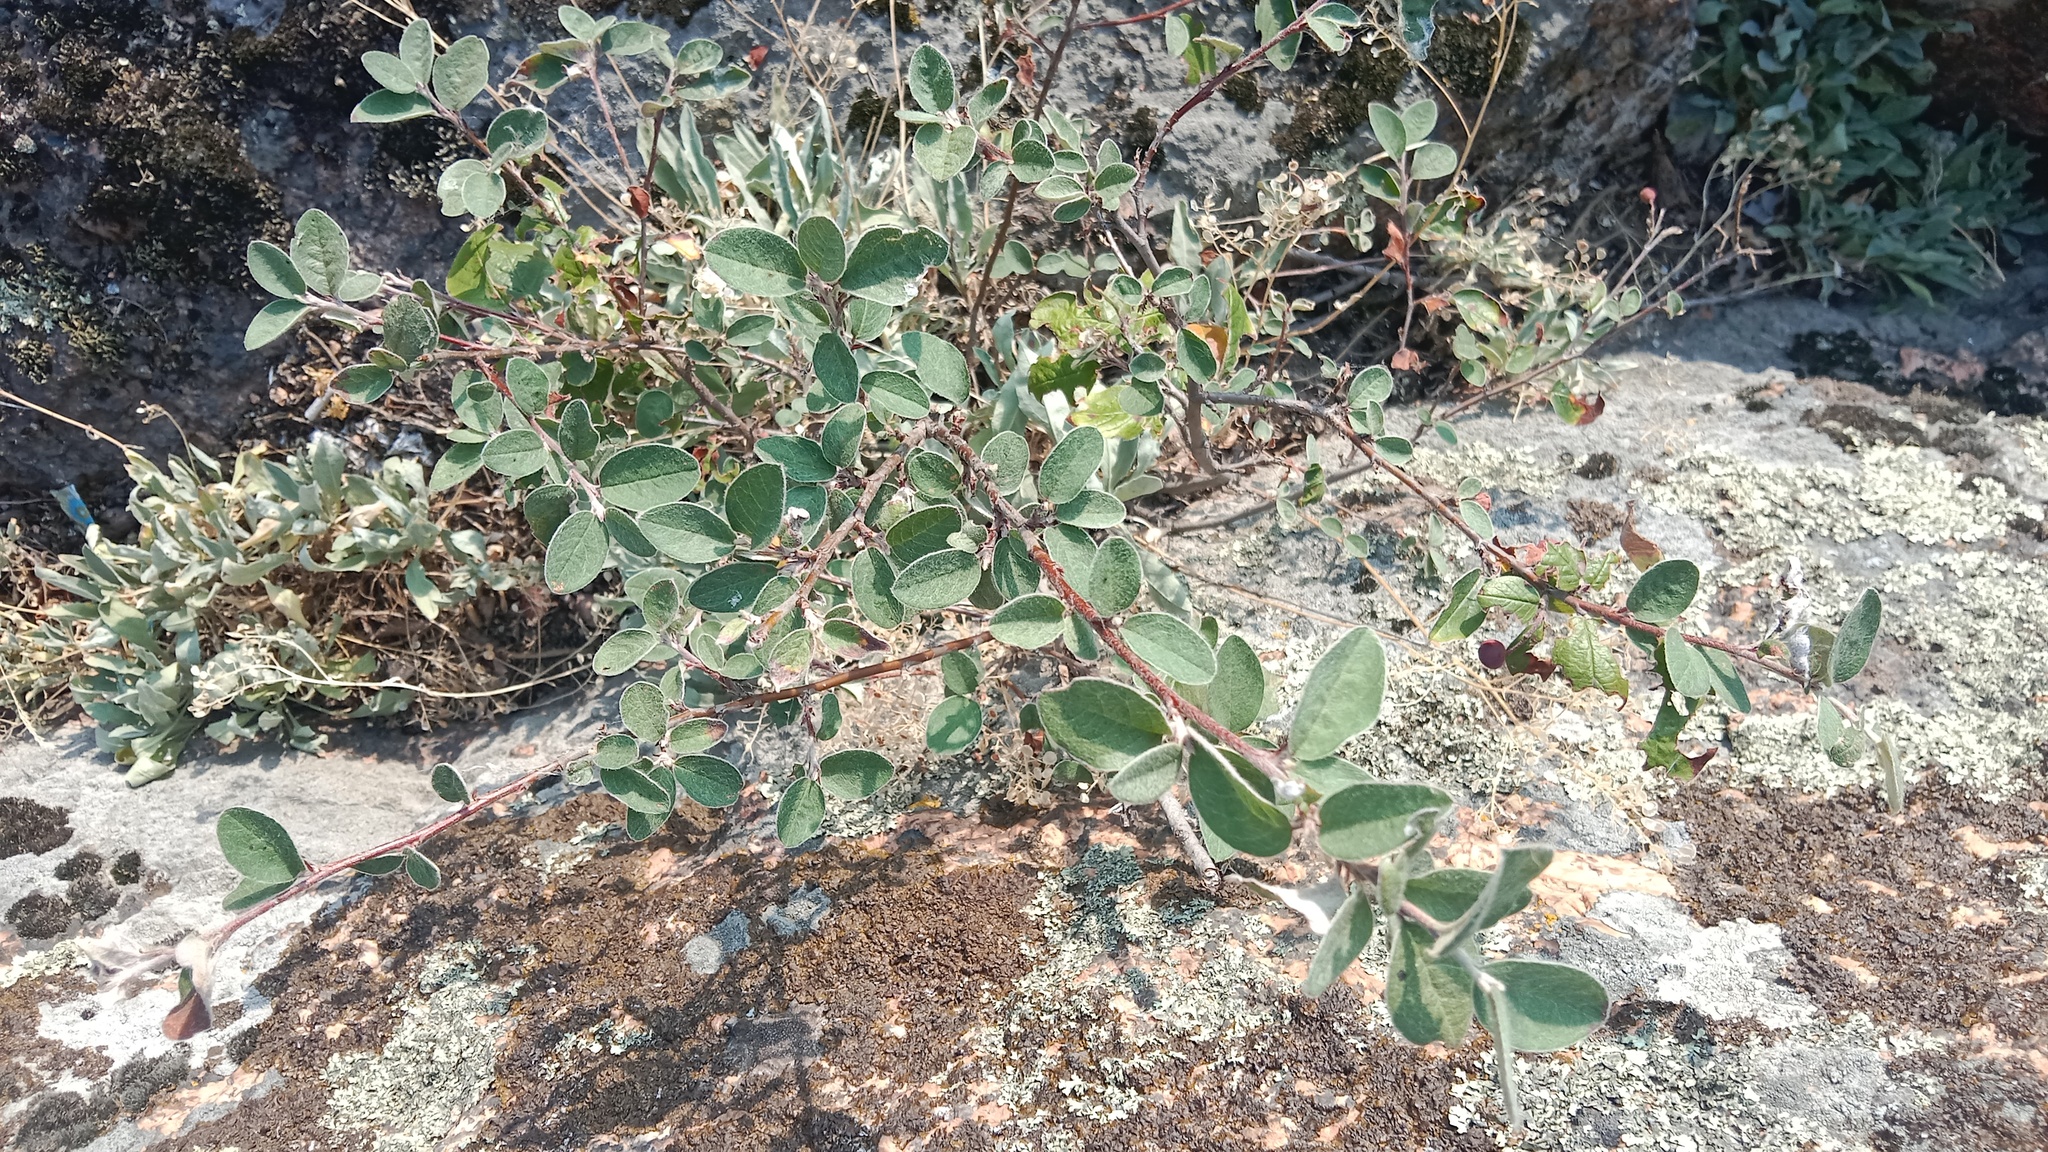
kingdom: Plantae
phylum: Tracheophyta
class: Magnoliopsida
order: Rosales
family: Rosaceae
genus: Cotoneaster
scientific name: Cotoneaster melanocarpus
